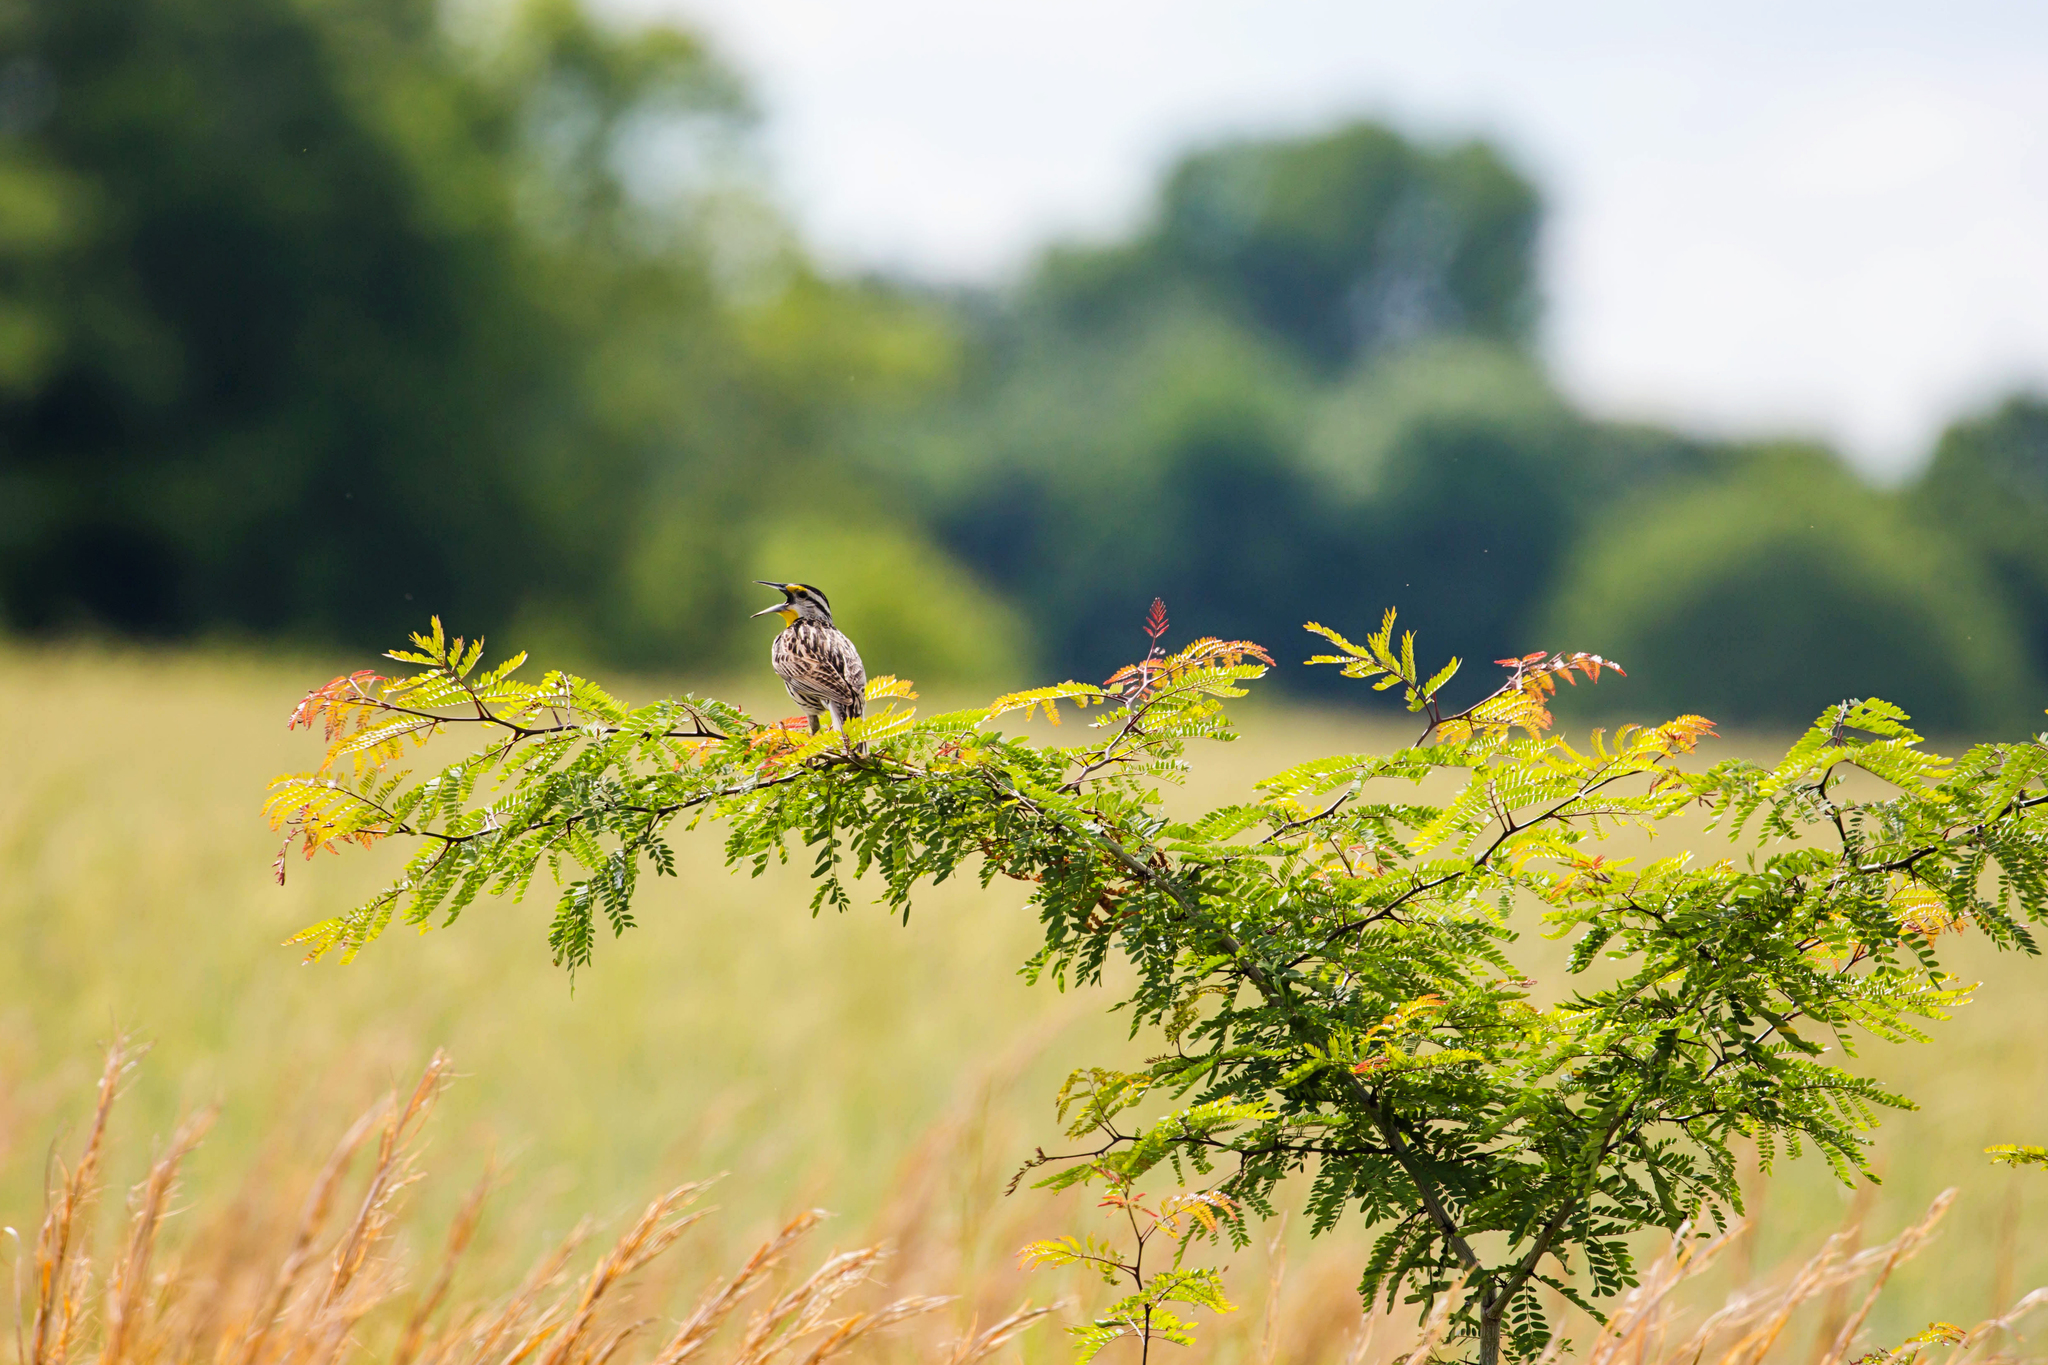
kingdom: Animalia
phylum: Chordata
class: Aves
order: Passeriformes
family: Icteridae
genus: Sturnella
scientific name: Sturnella magna
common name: Eastern meadowlark
